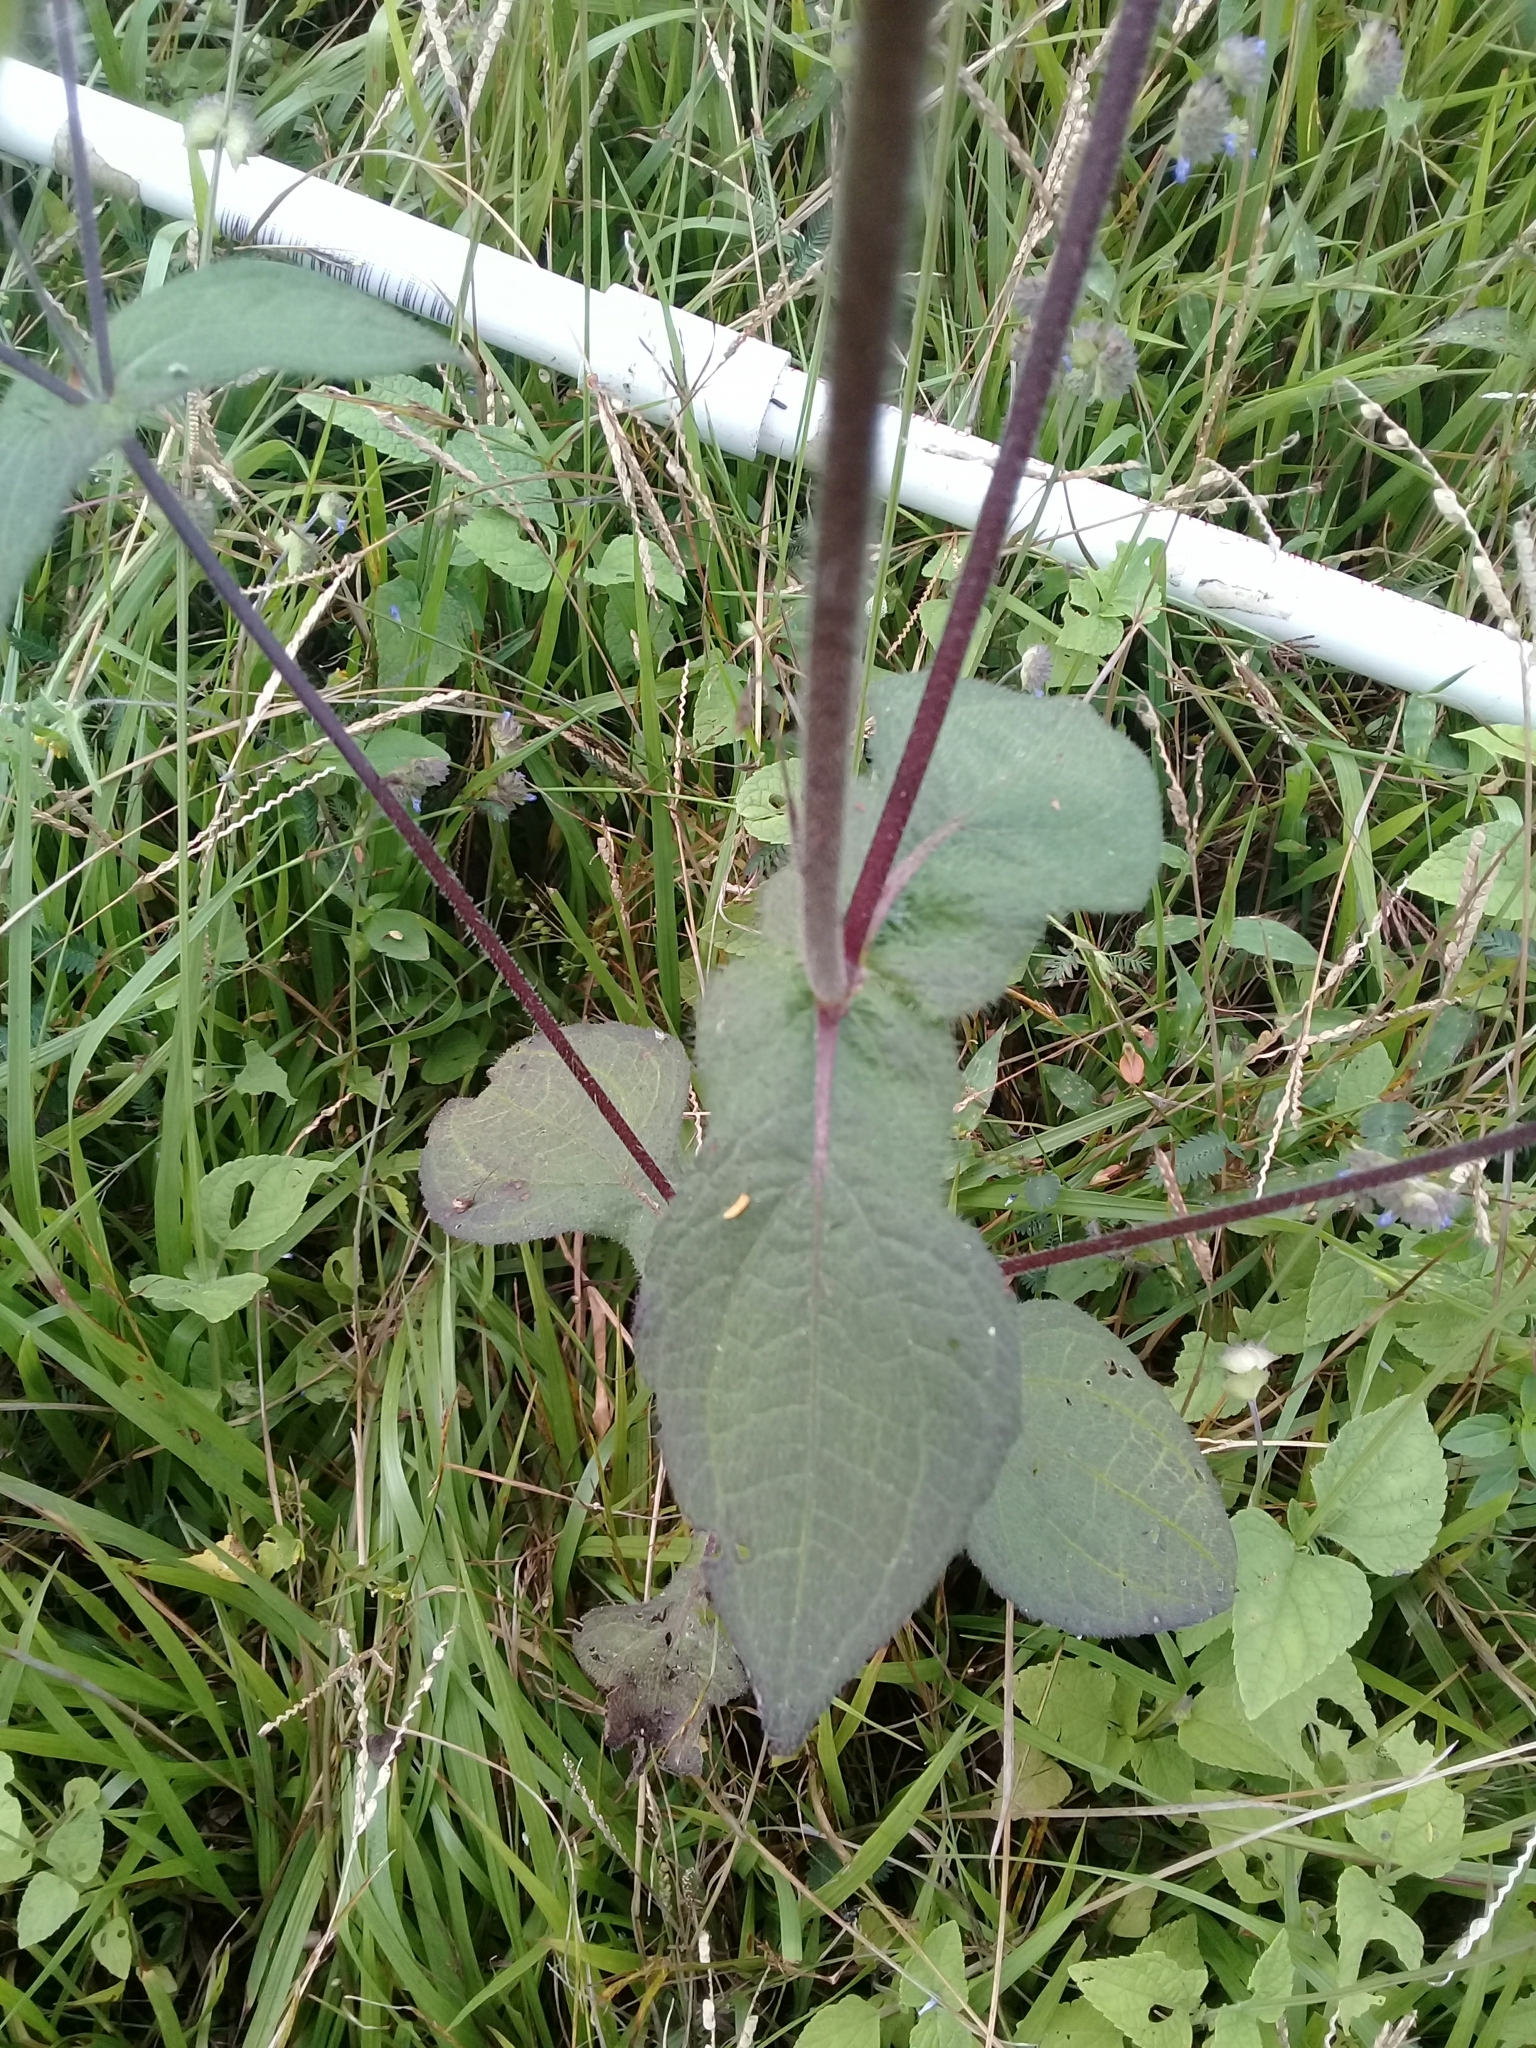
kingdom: Plantae
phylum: Tracheophyta
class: Magnoliopsida
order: Asterales
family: Asteraceae
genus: Sigesbeckia
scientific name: Sigesbeckia agrestis
